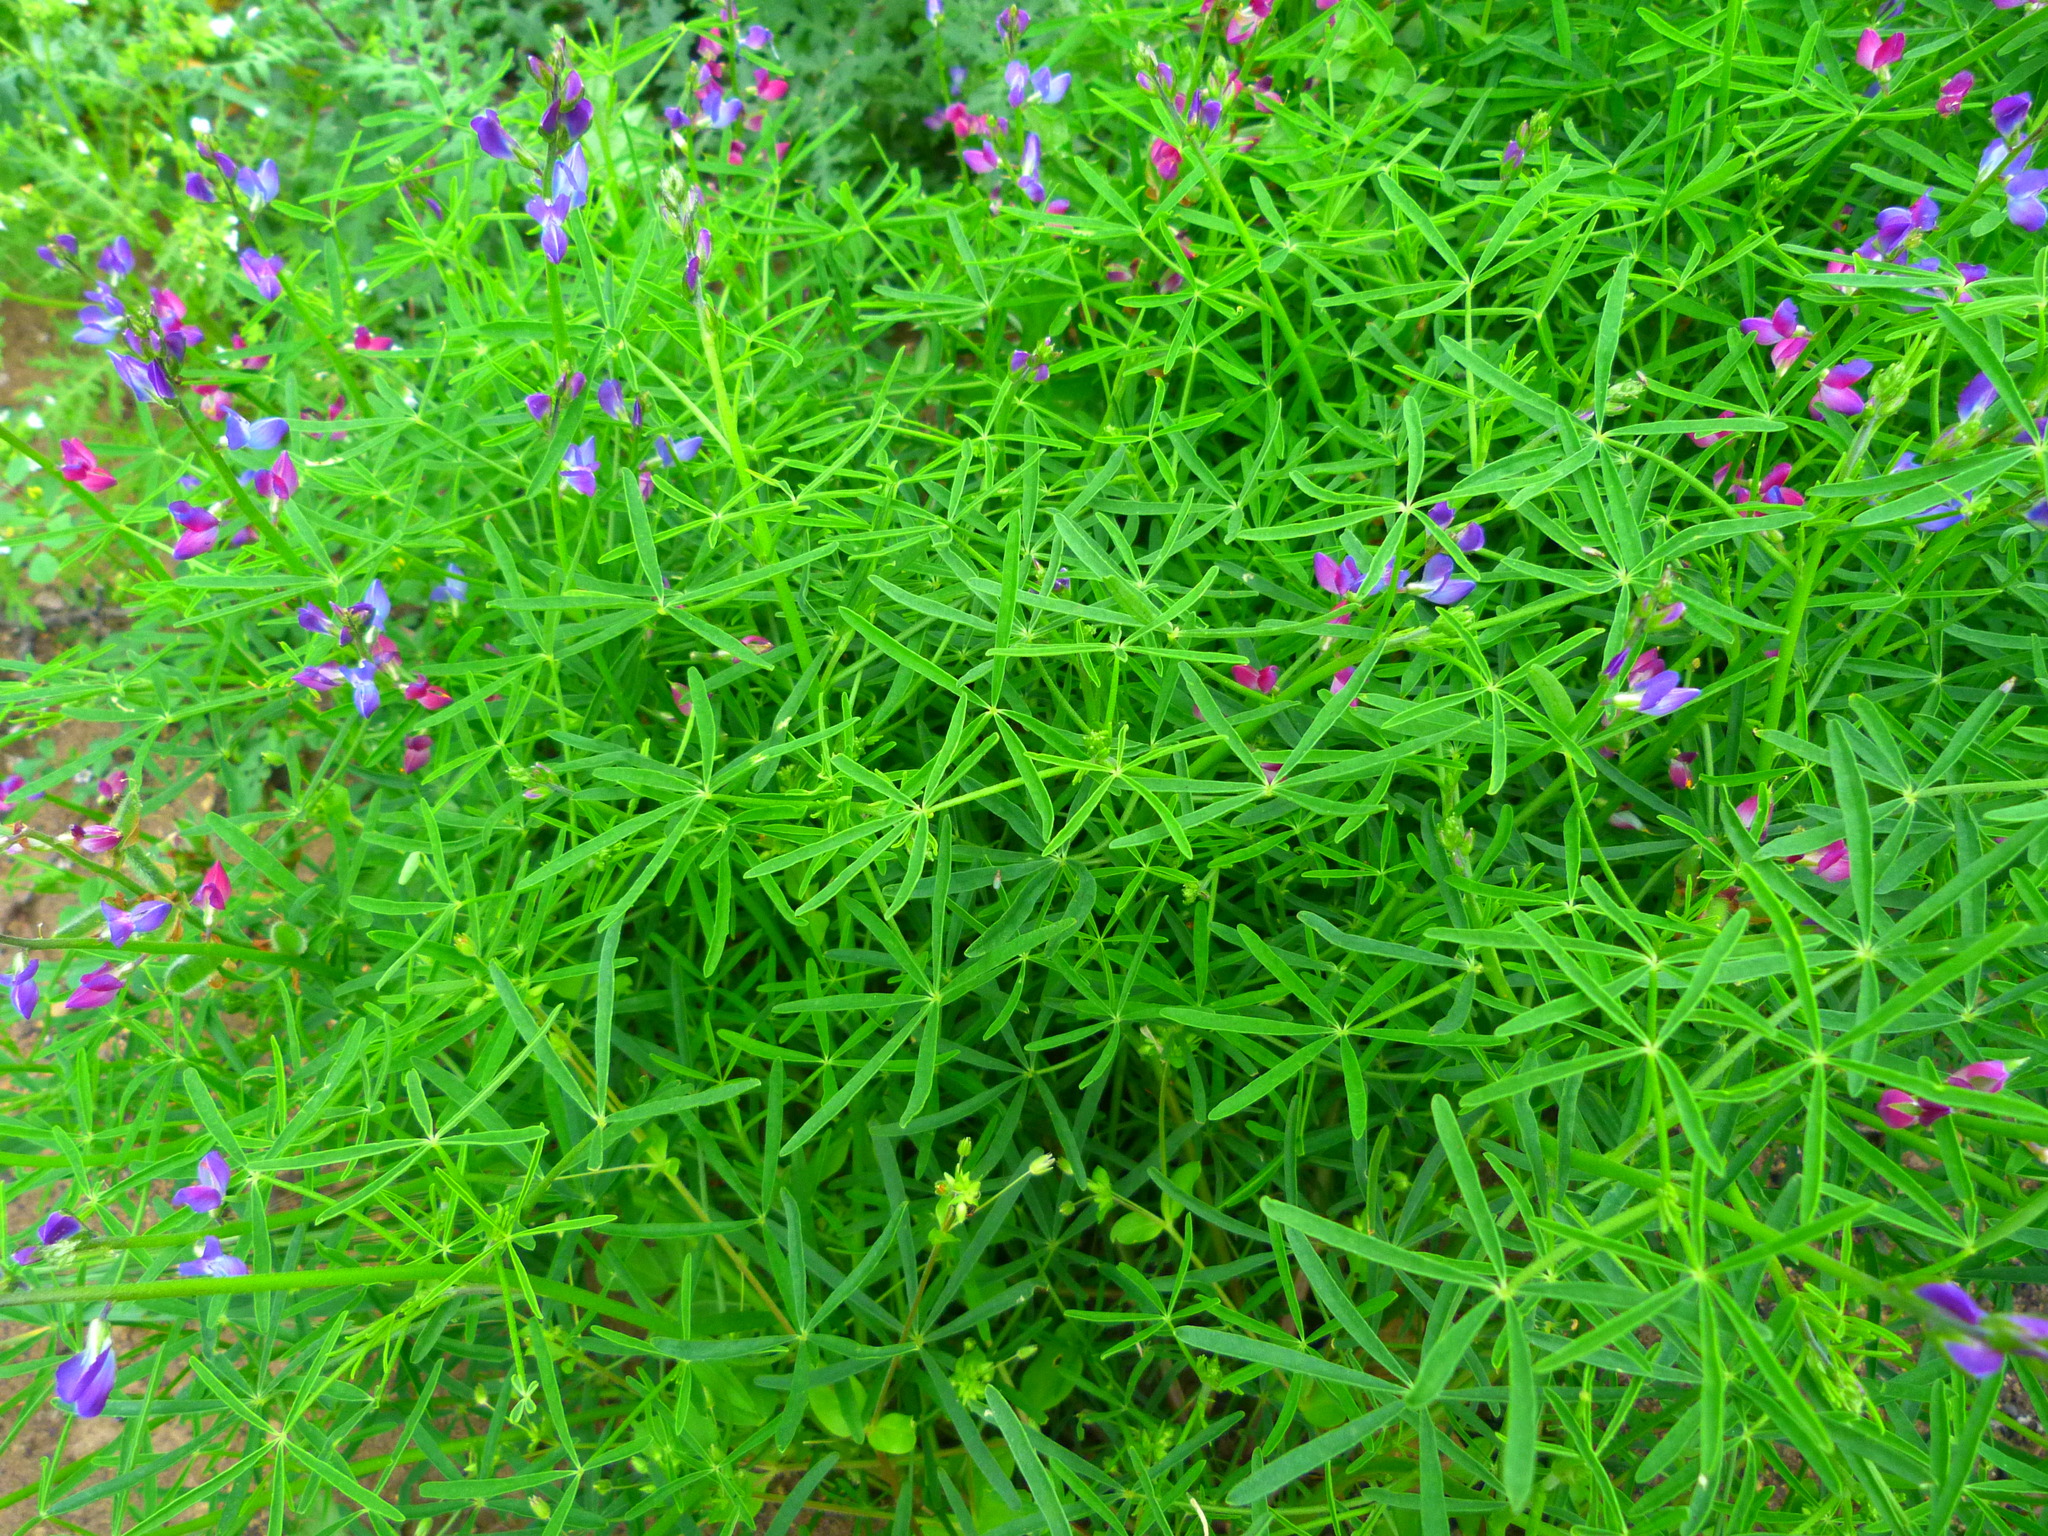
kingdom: Plantae
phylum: Tracheophyta
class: Magnoliopsida
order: Fabales
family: Fabaceae
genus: Lupinus
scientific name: Lupinus truncatus
